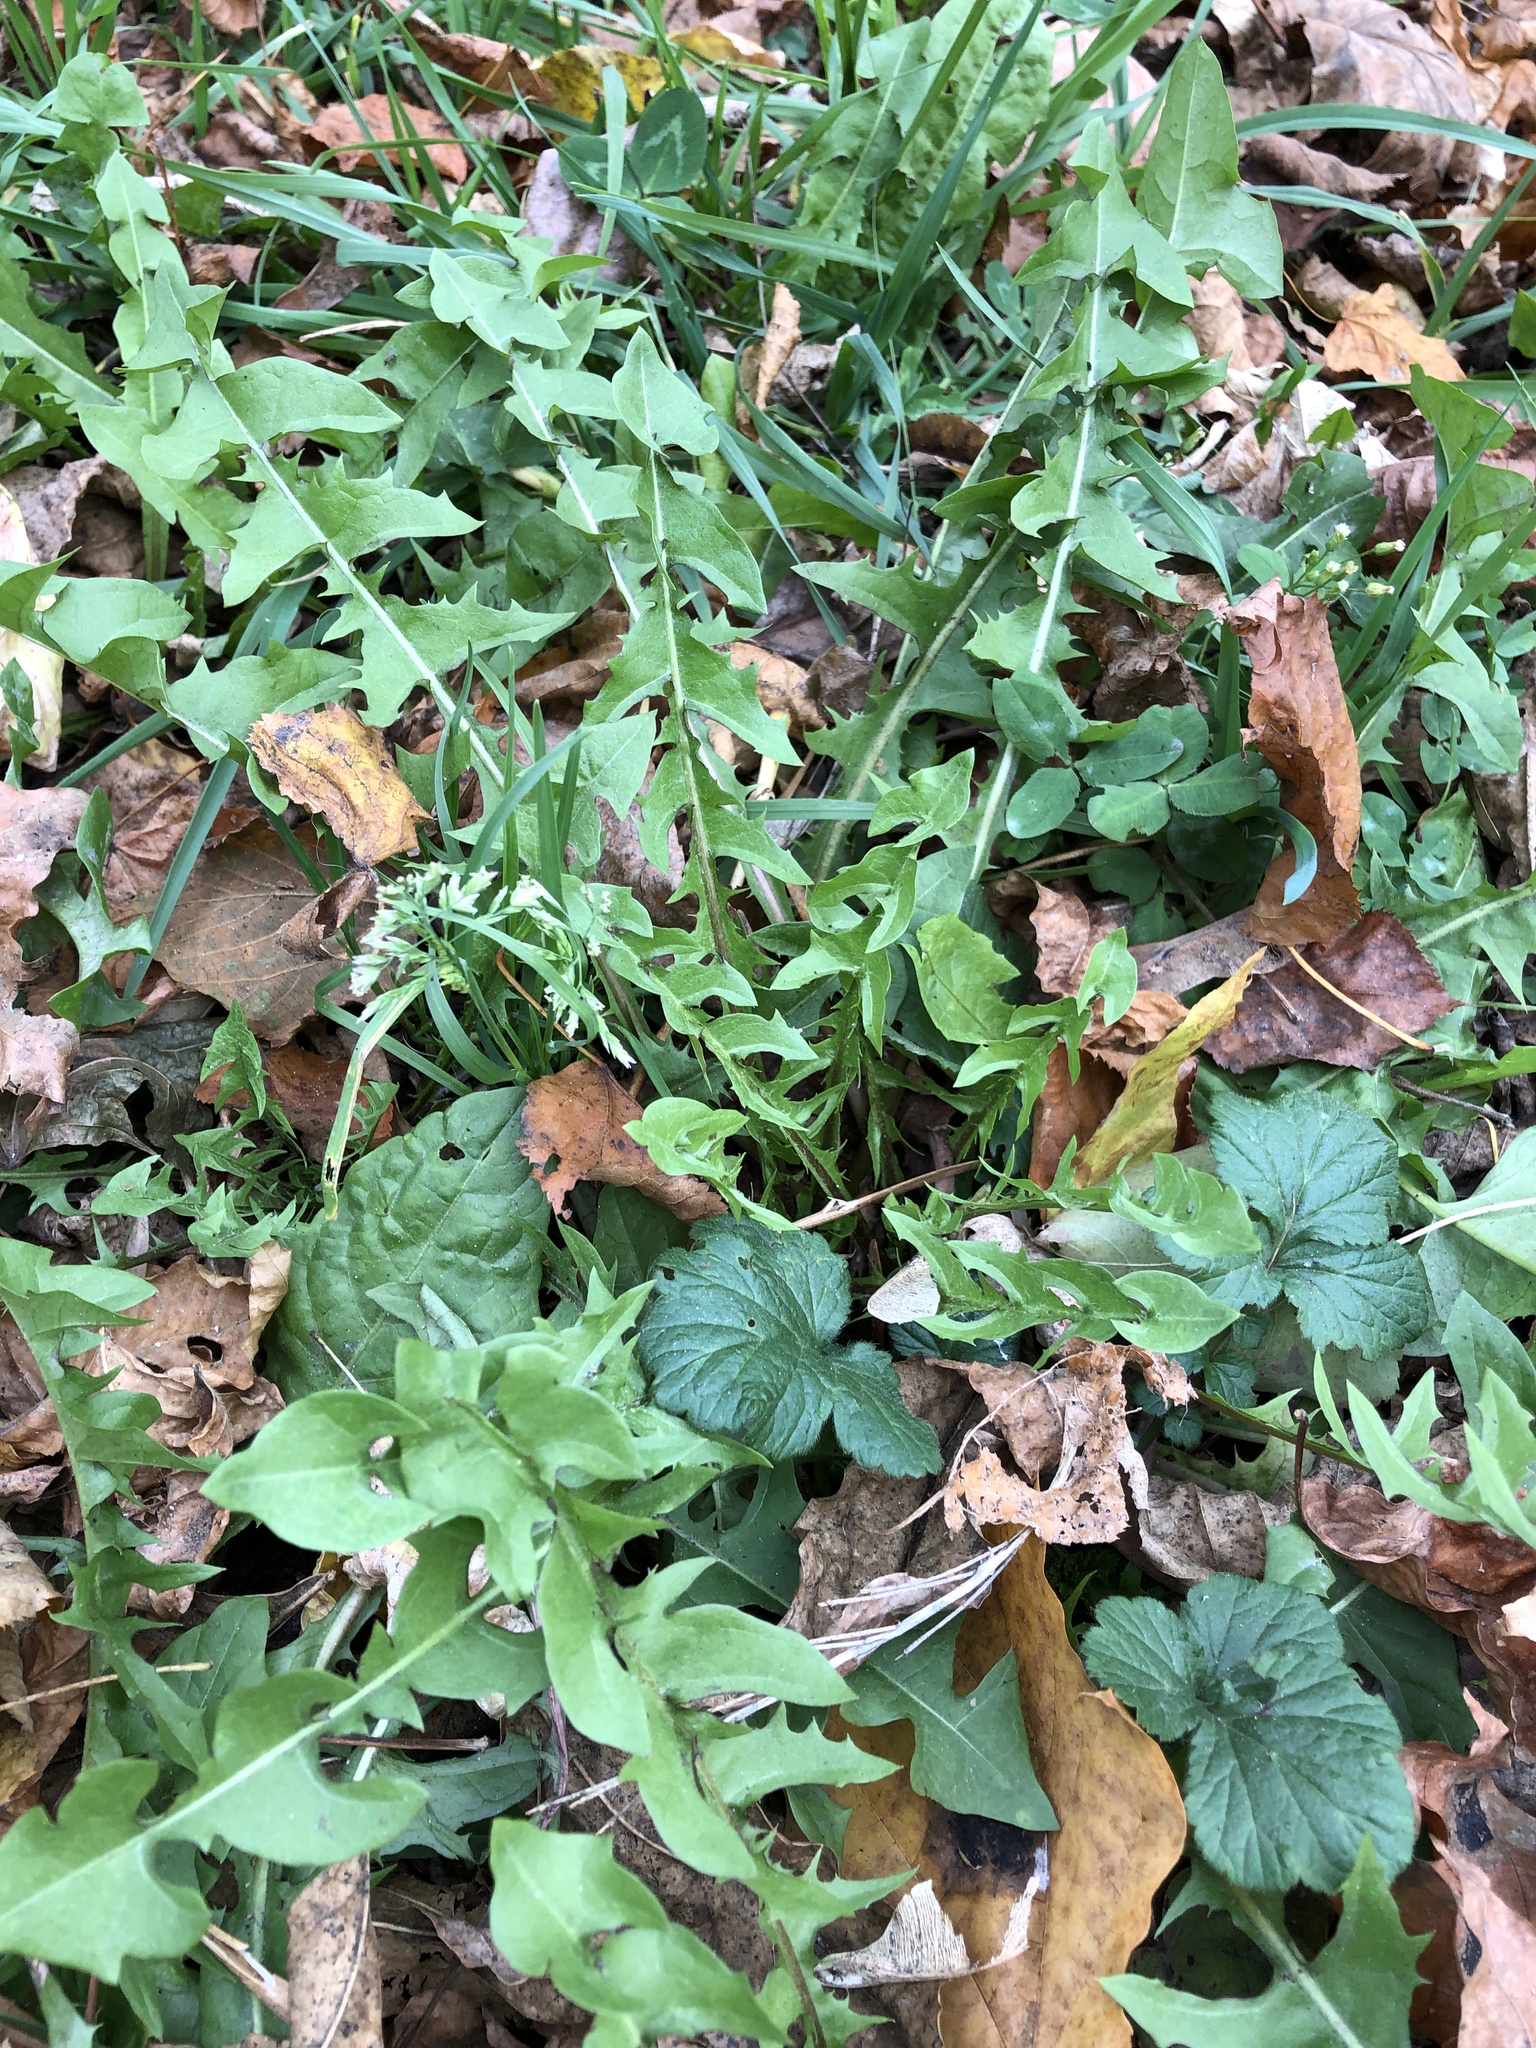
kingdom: Plantae
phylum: Tracheophyta
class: Magnoliopsida
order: Asterales
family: Asteraceae
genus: Taraxacum
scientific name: Taraxacum officinale
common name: Common dandelion
